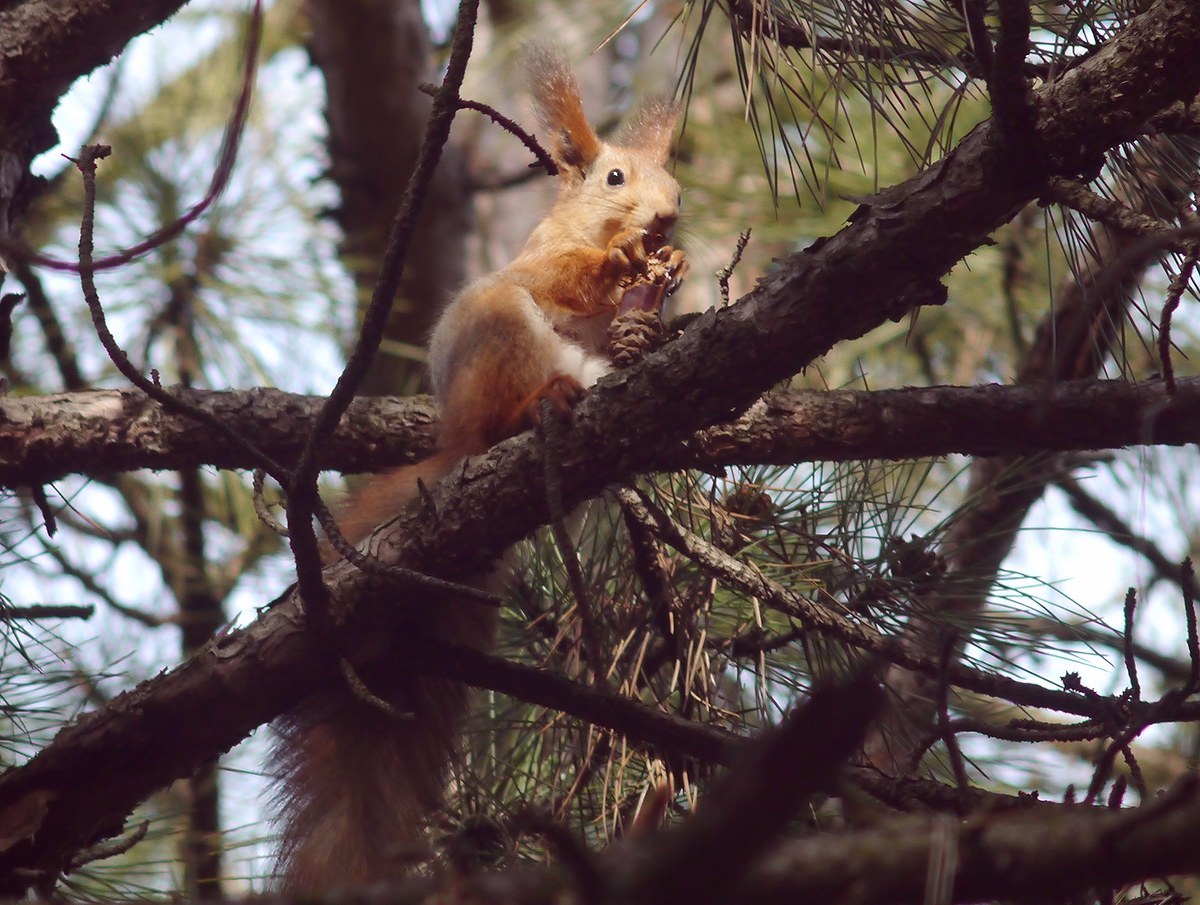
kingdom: Animalia
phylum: Chordata
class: Mammalia
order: Rodentia
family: Sciuridae
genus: Sciurus
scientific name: Sciurus vulgaris
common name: Eurasian red squirrel
